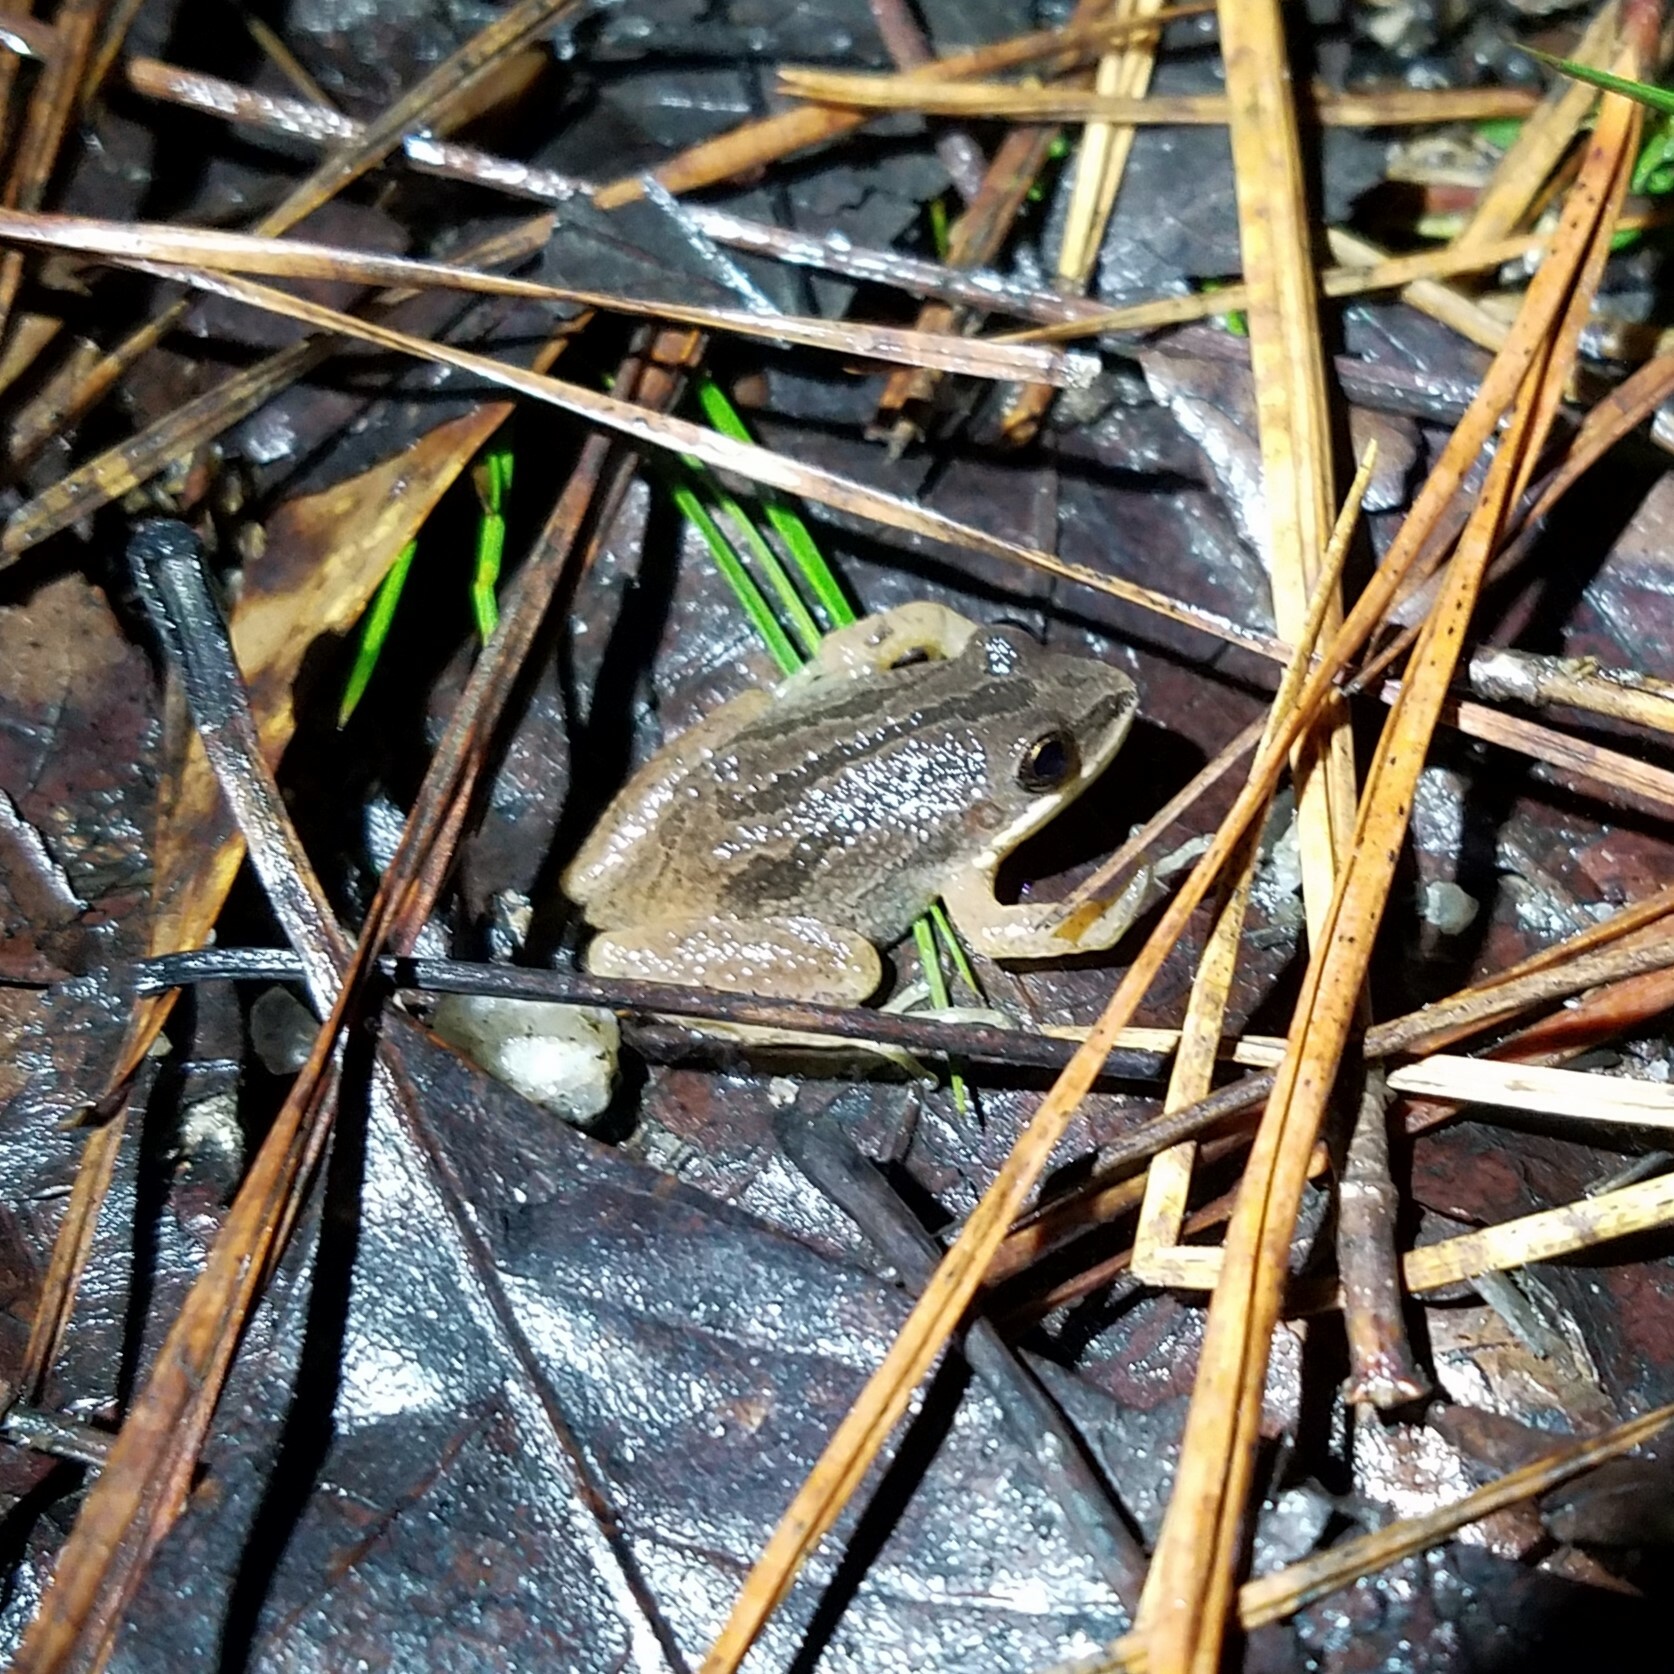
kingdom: Animalia
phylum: Chordata
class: Amphibia
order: Anura
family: Hylidae
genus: Pseudacris
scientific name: Pseudacris feriarum
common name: Upland chorus frog
